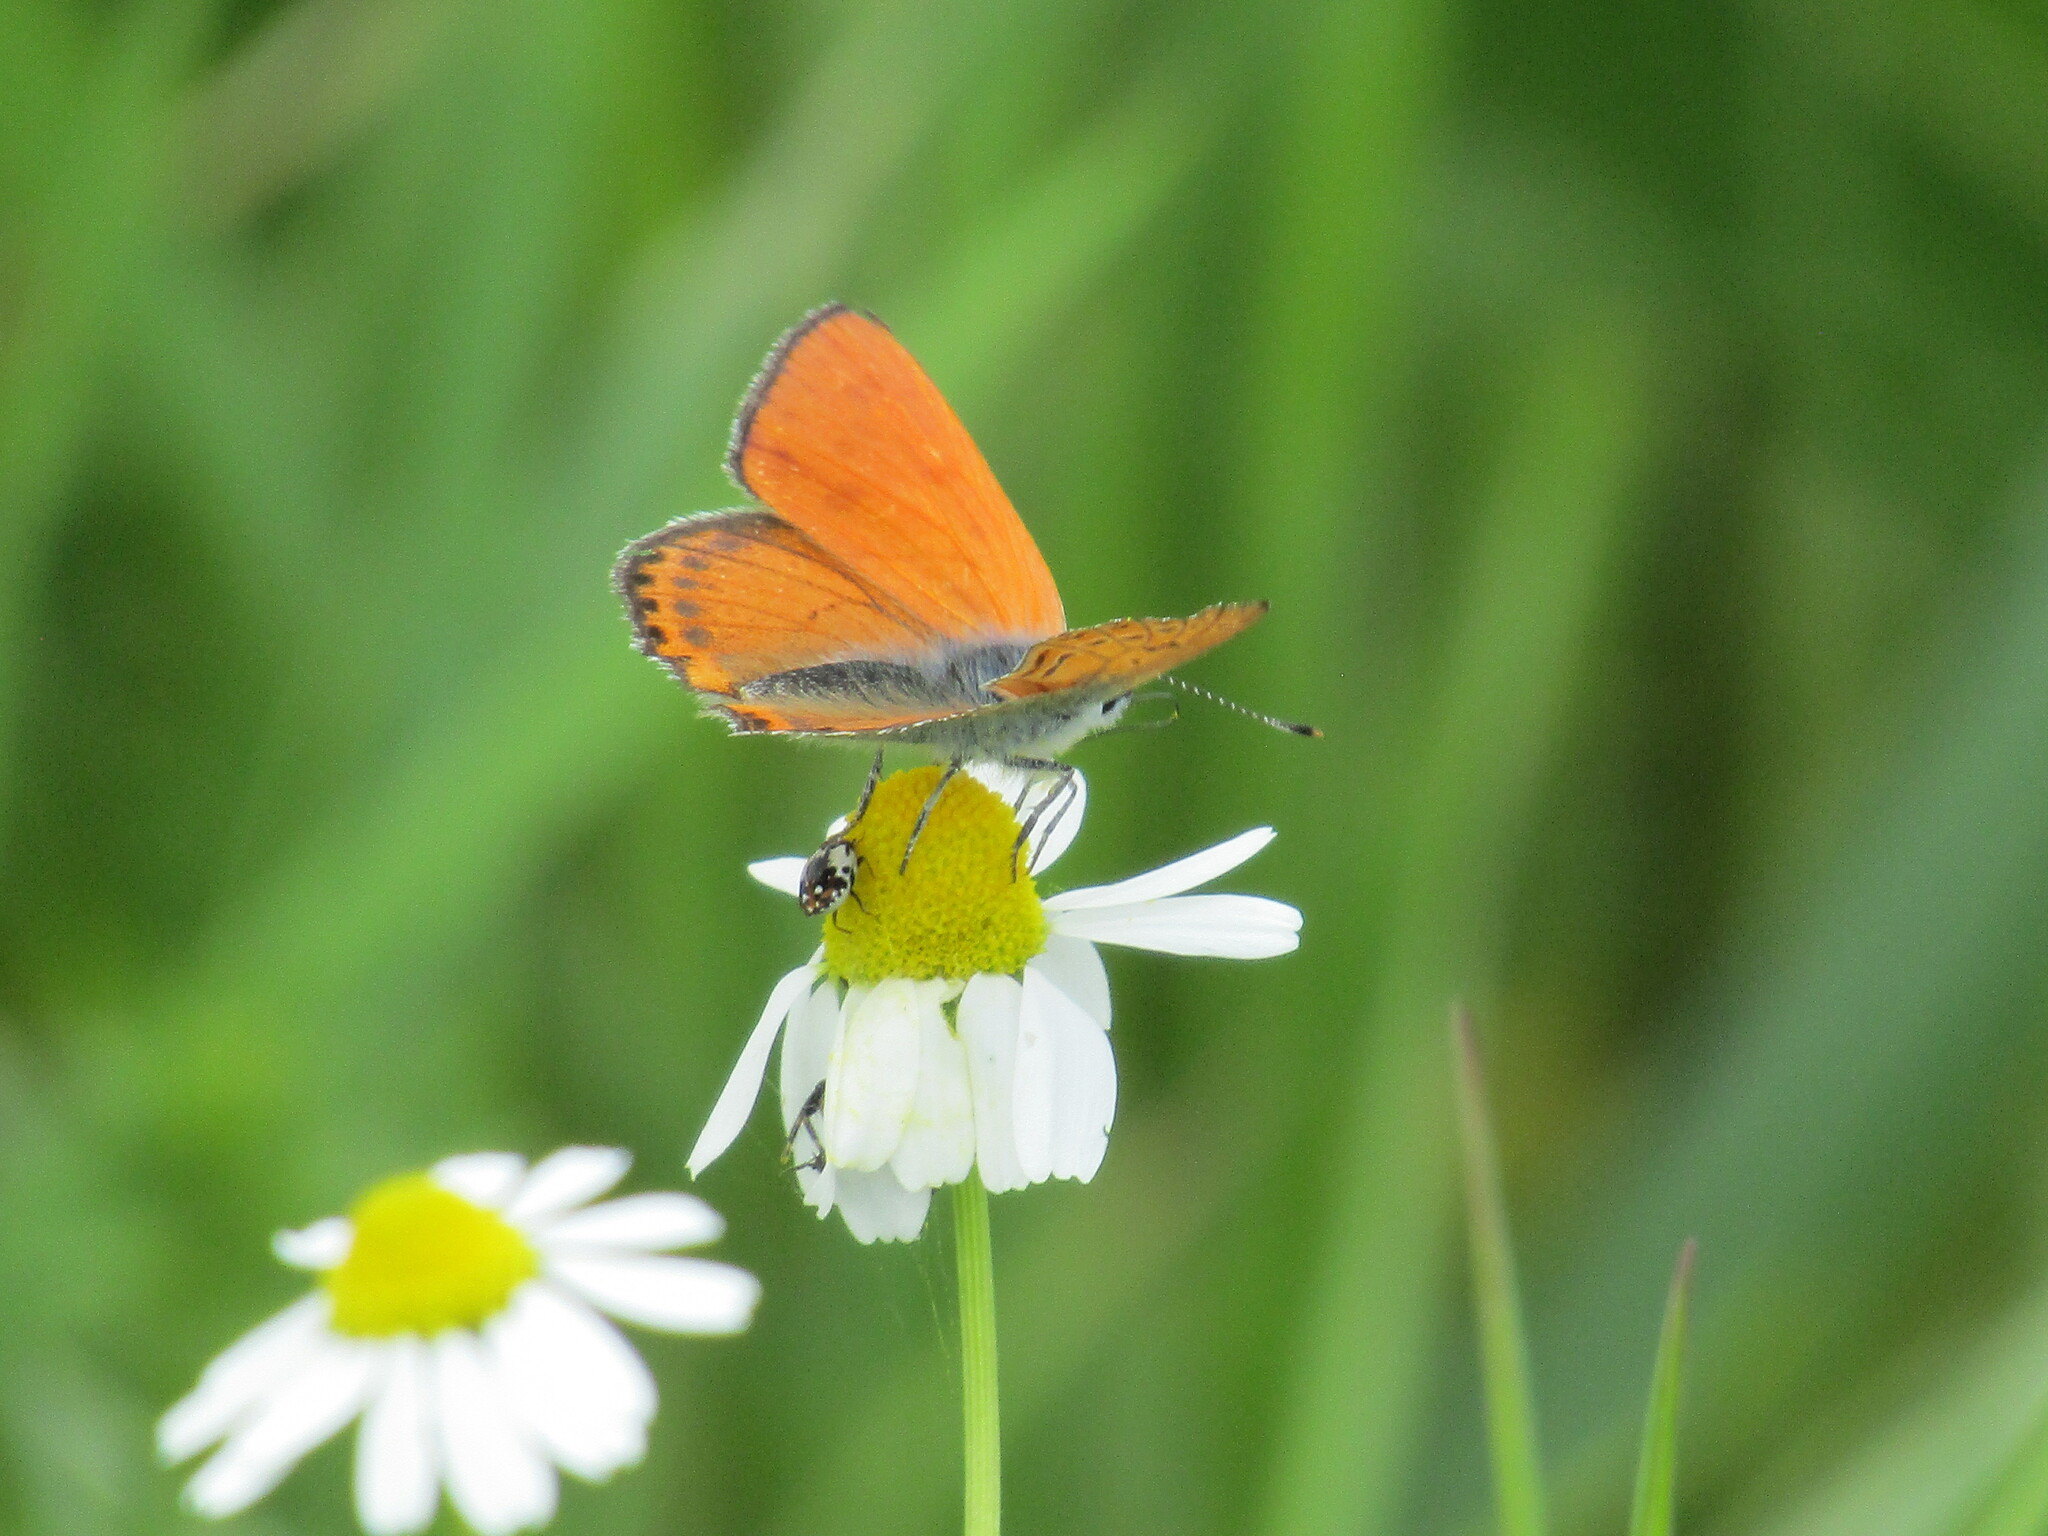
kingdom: Animalia
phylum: Arthropoda
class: Insecta
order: Lepidoptera
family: Lycaenidae
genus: Thersamonia
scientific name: Thersamonia thersamon
